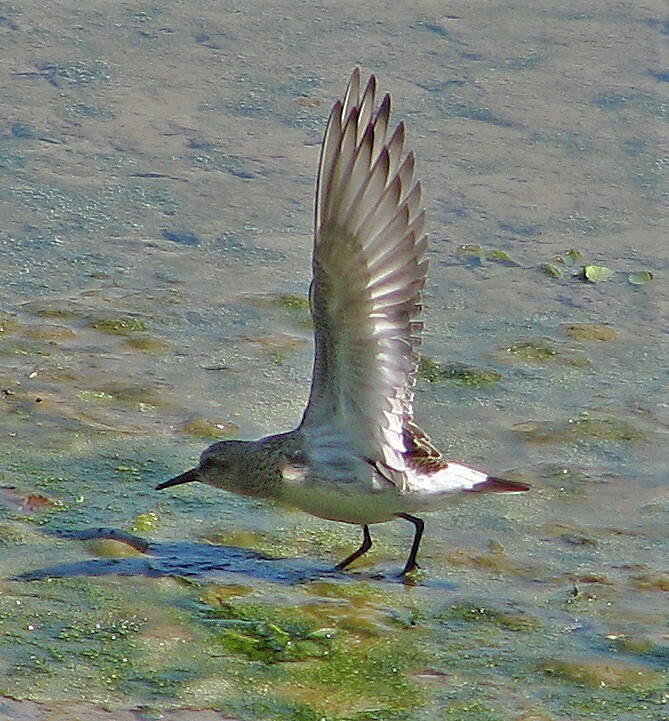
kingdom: Animalia
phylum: Chordata
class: Aves
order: Charadriiformes
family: Scolopacidae
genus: Calidris
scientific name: Calidris fuscicollis
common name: White-rumped sandpiper
